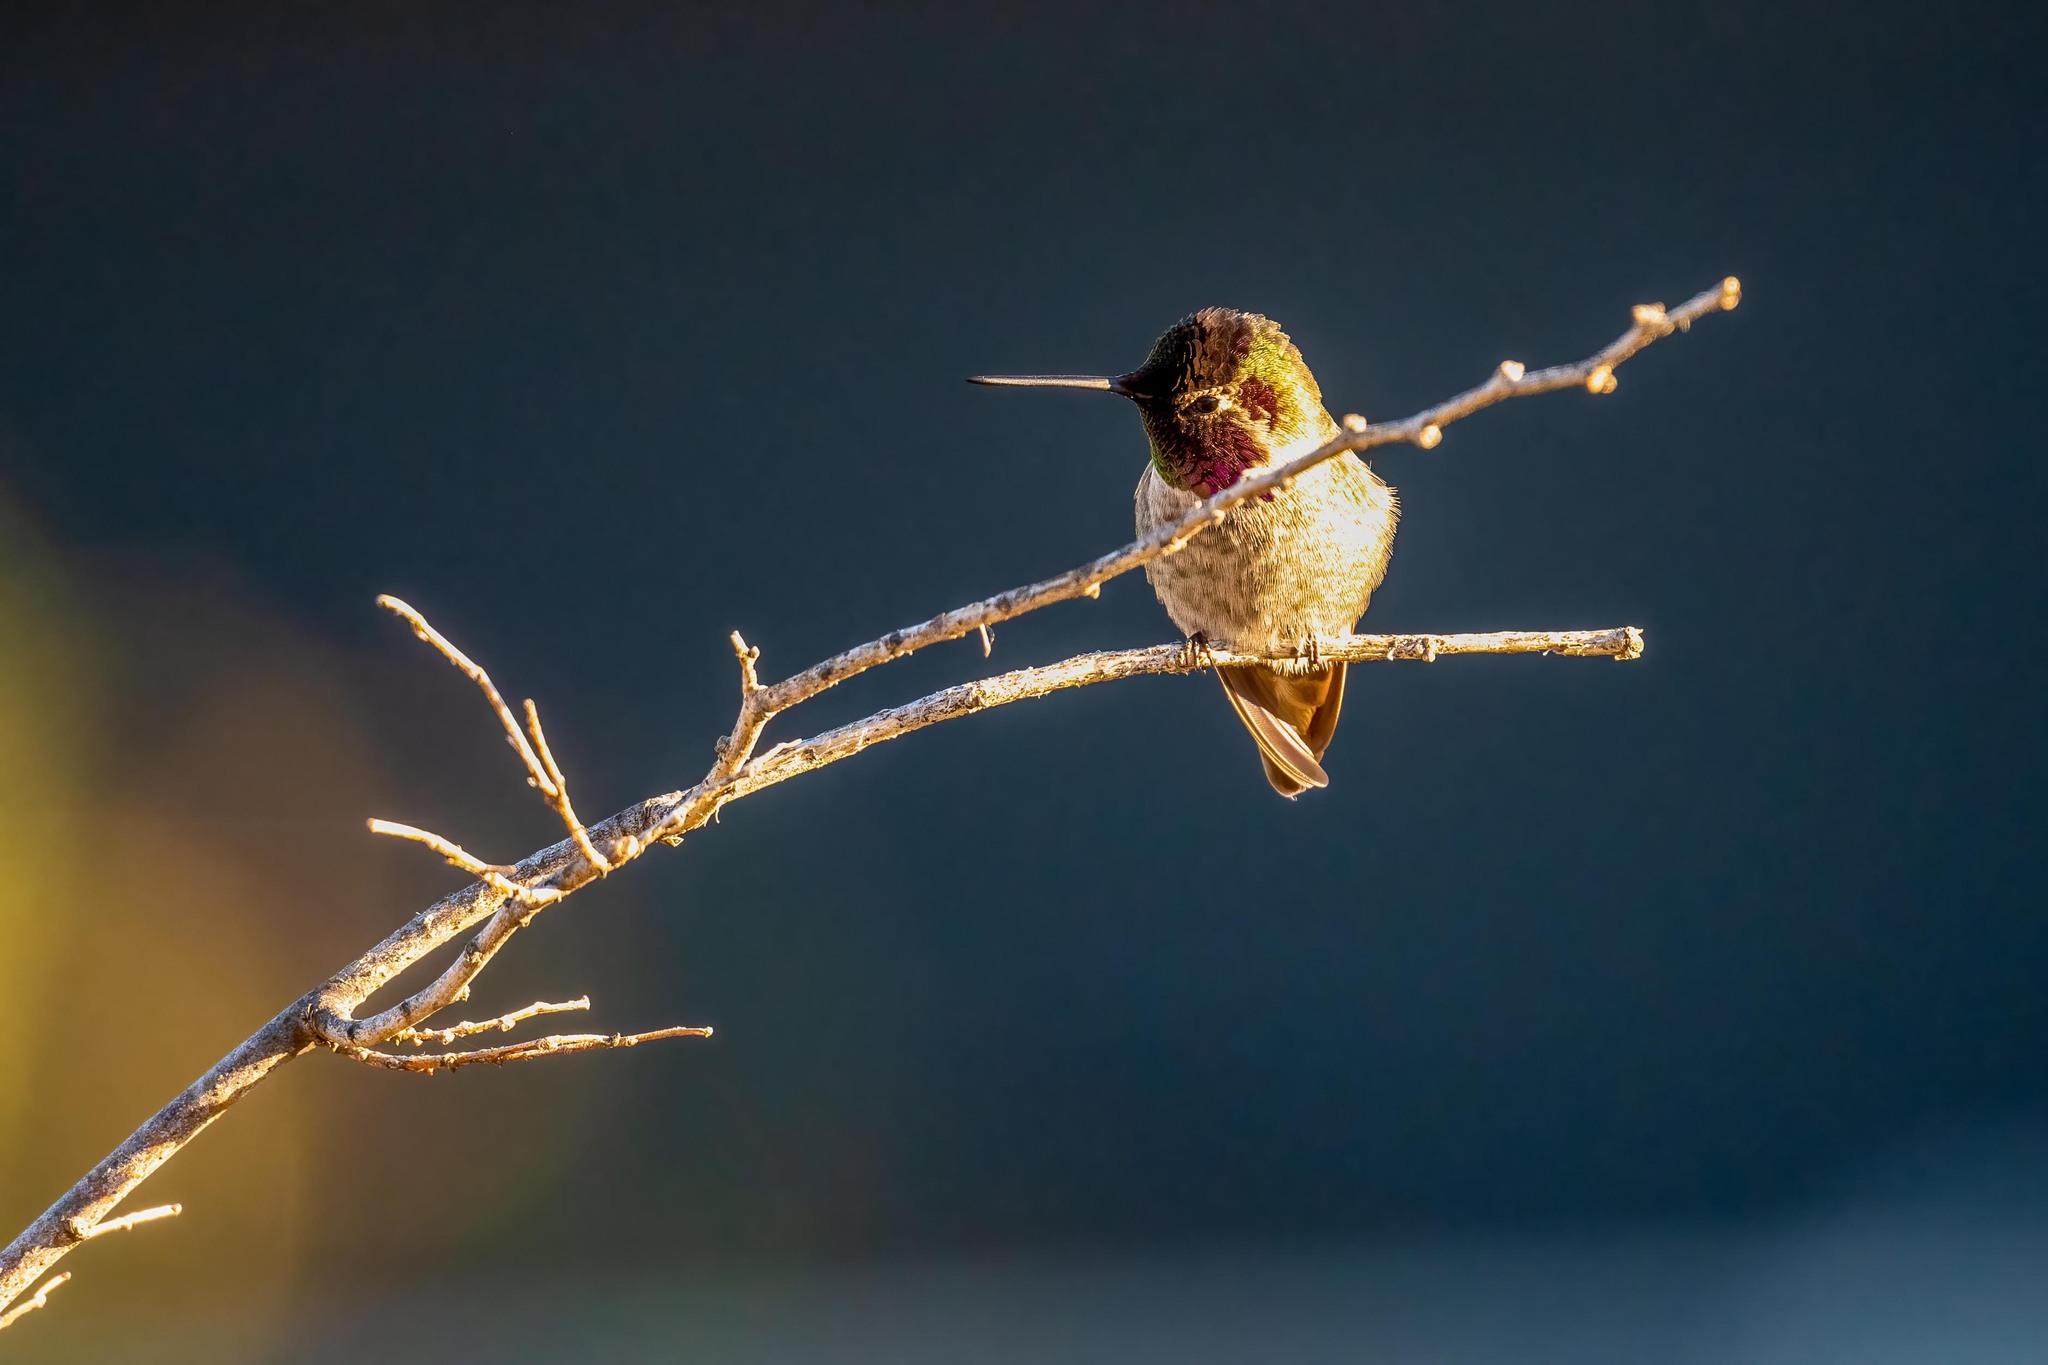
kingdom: Animalia
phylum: Chordata
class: Aves
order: Apodiformes
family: Trochilidae
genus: Calypte
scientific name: Calypte anna
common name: Anna's hummingbird
